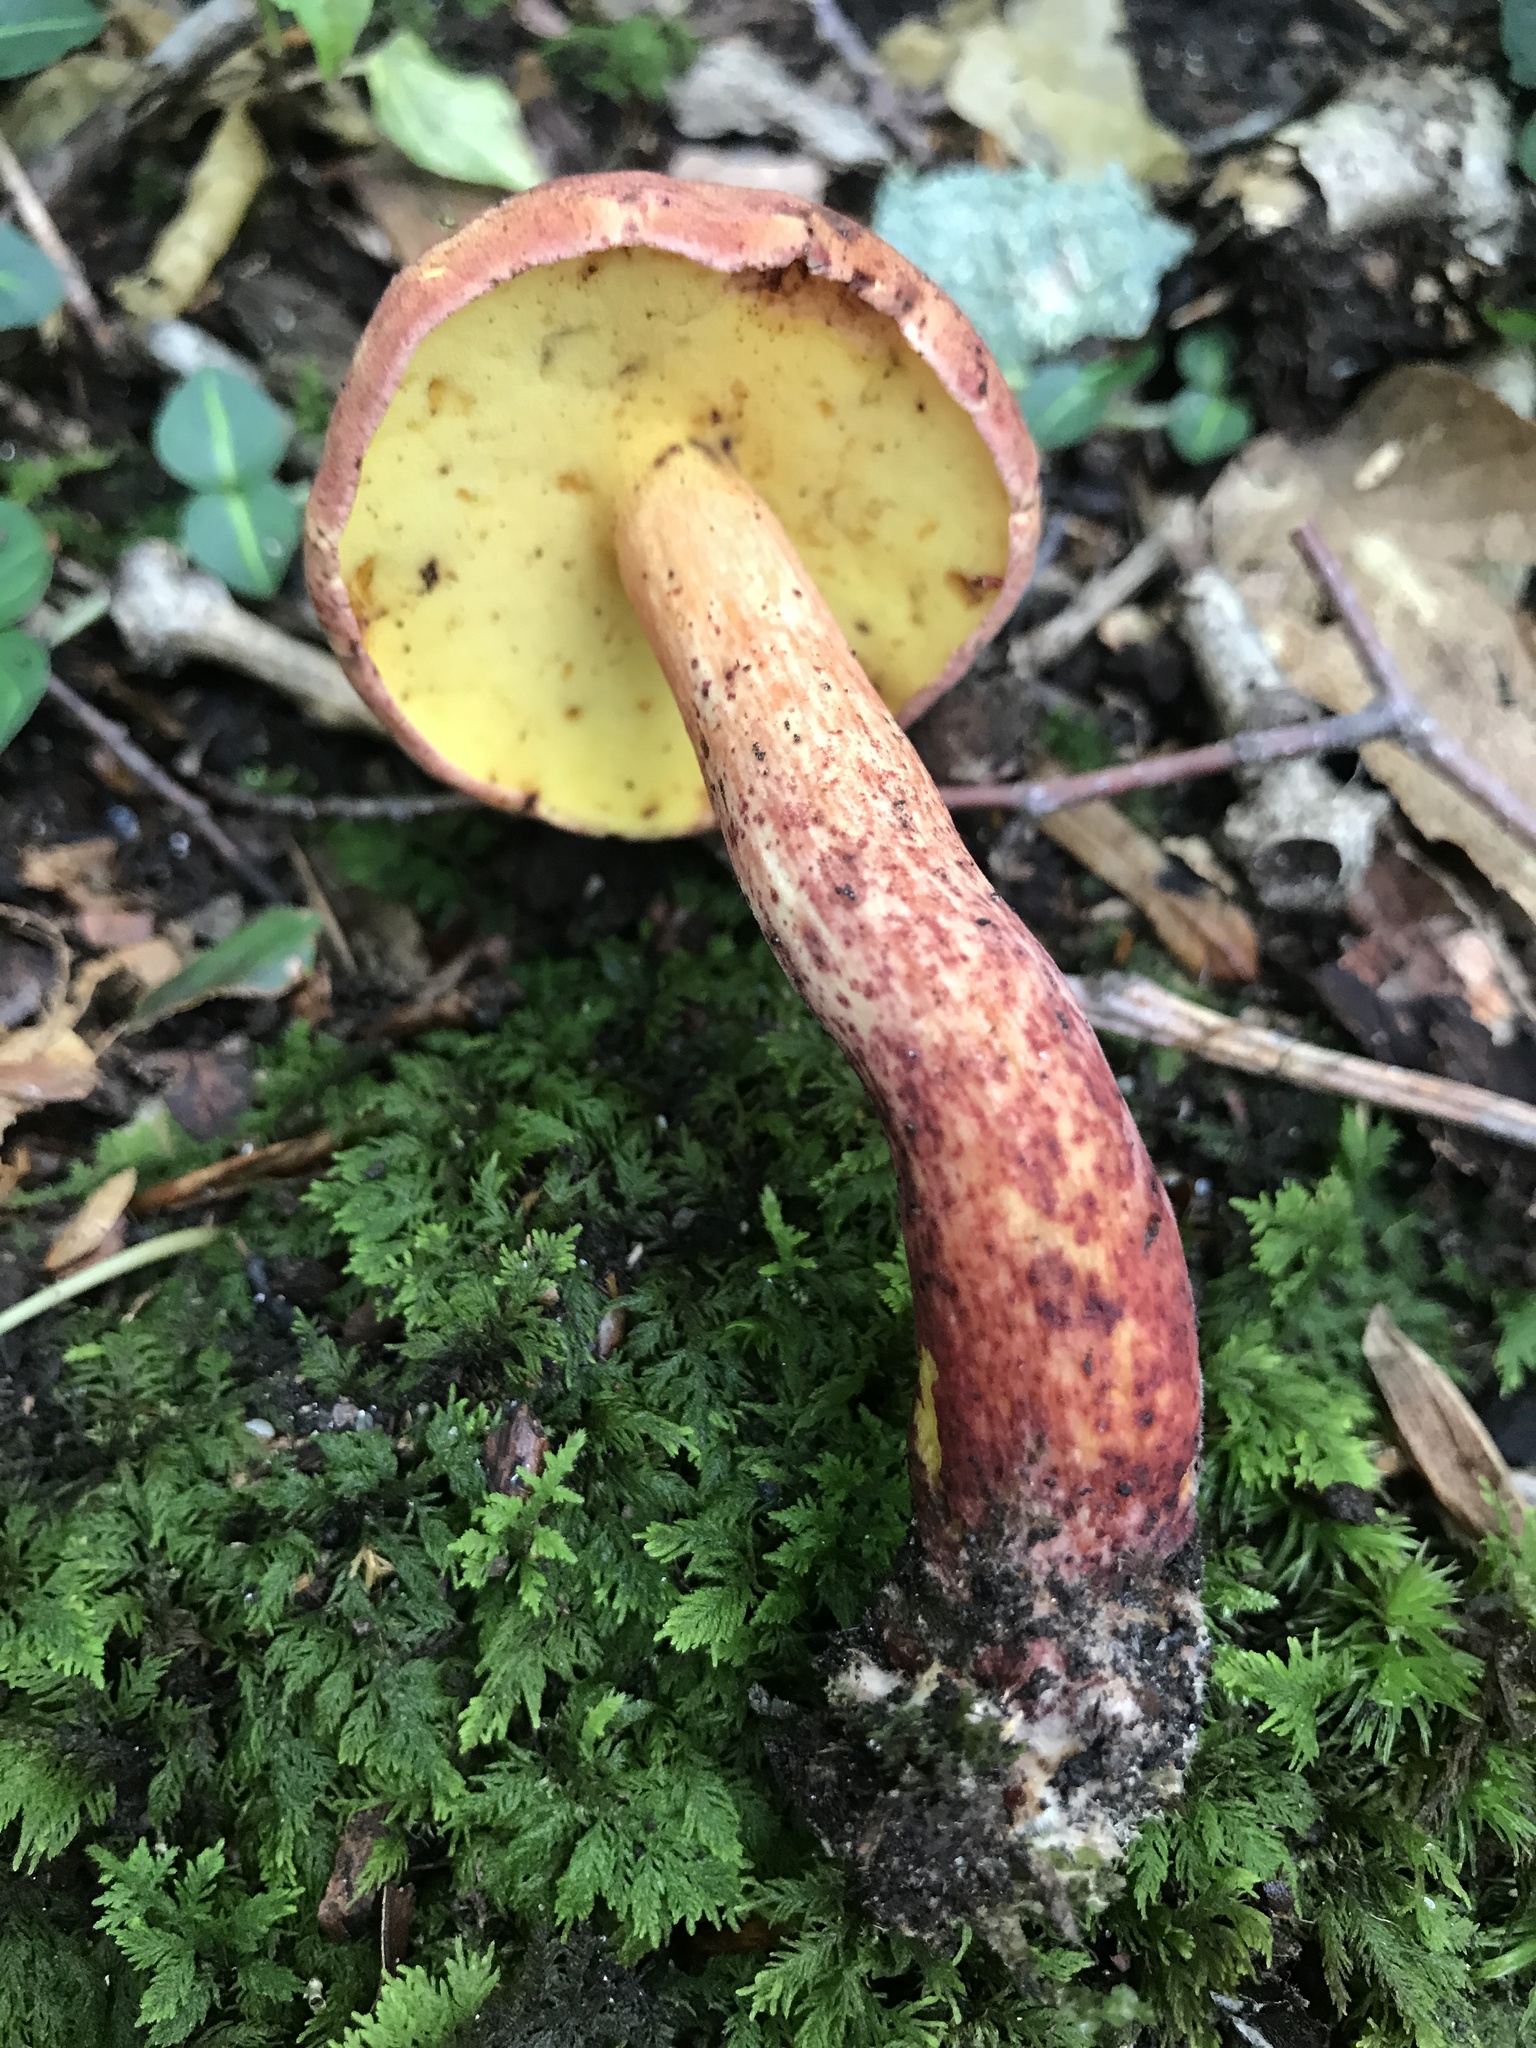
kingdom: Fungi
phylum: Basidiomycota
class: Agaricomycetes
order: Boletales
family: Boletaceae
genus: Baorangia
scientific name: Baorangia bicolor
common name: Two-colored bolete
